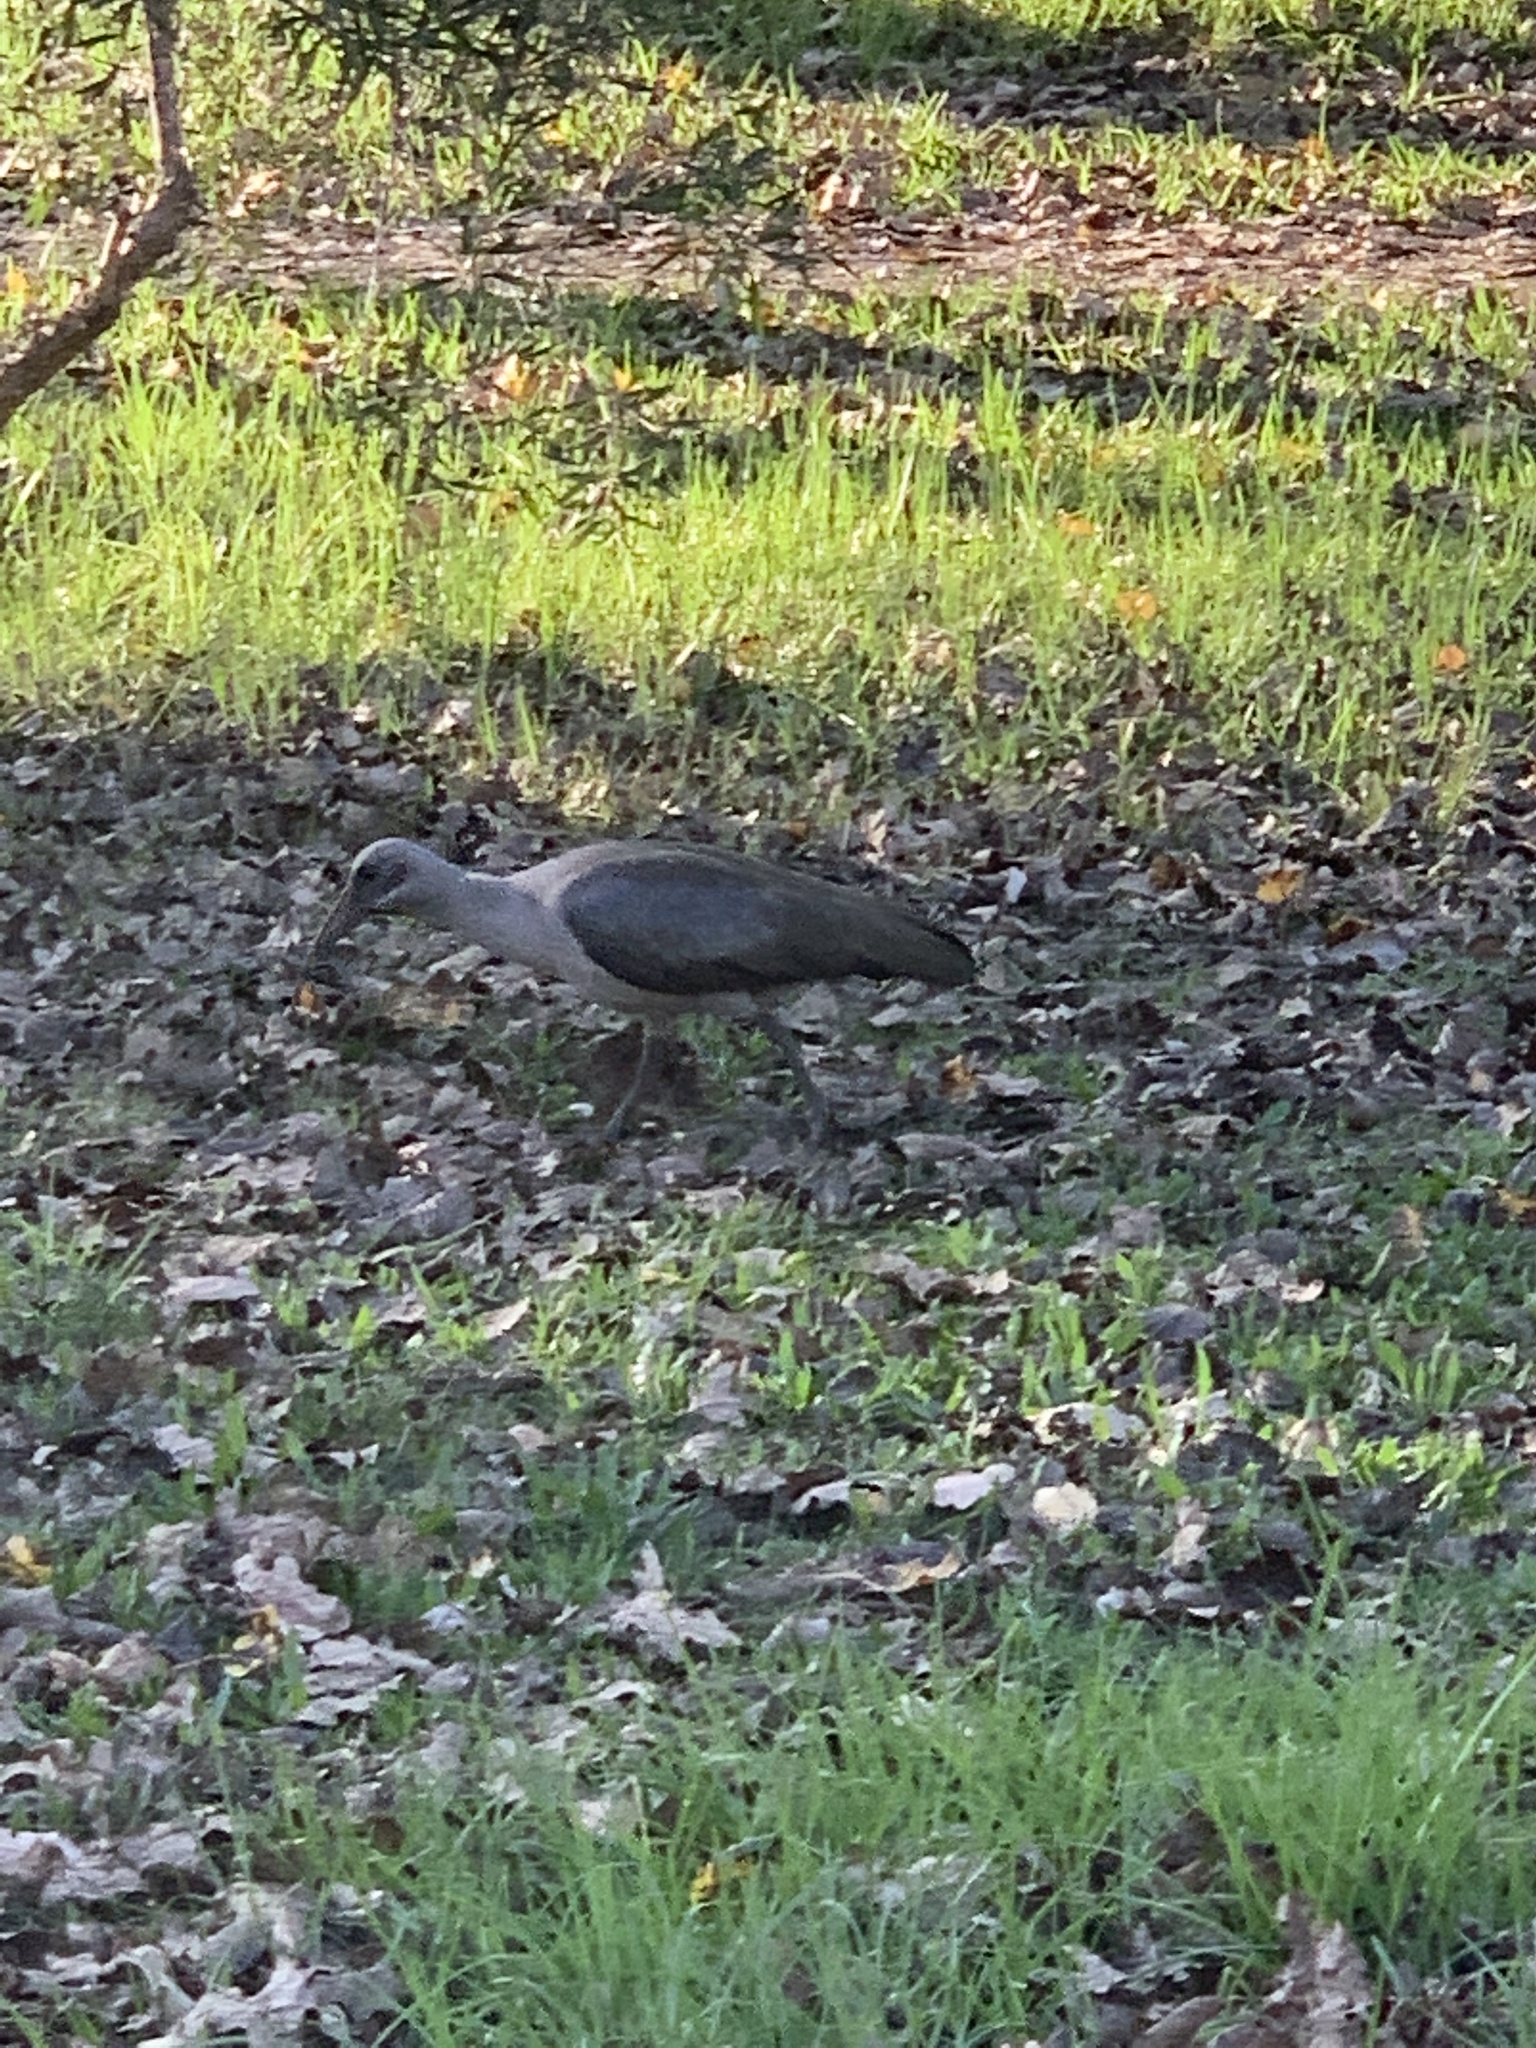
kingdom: Animalia
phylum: Chordata
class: Aves
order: Pelecaniformes
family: Threskiornithidae
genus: Bostrychia
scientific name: Bostrychia hagedash
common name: Hadada ibis
